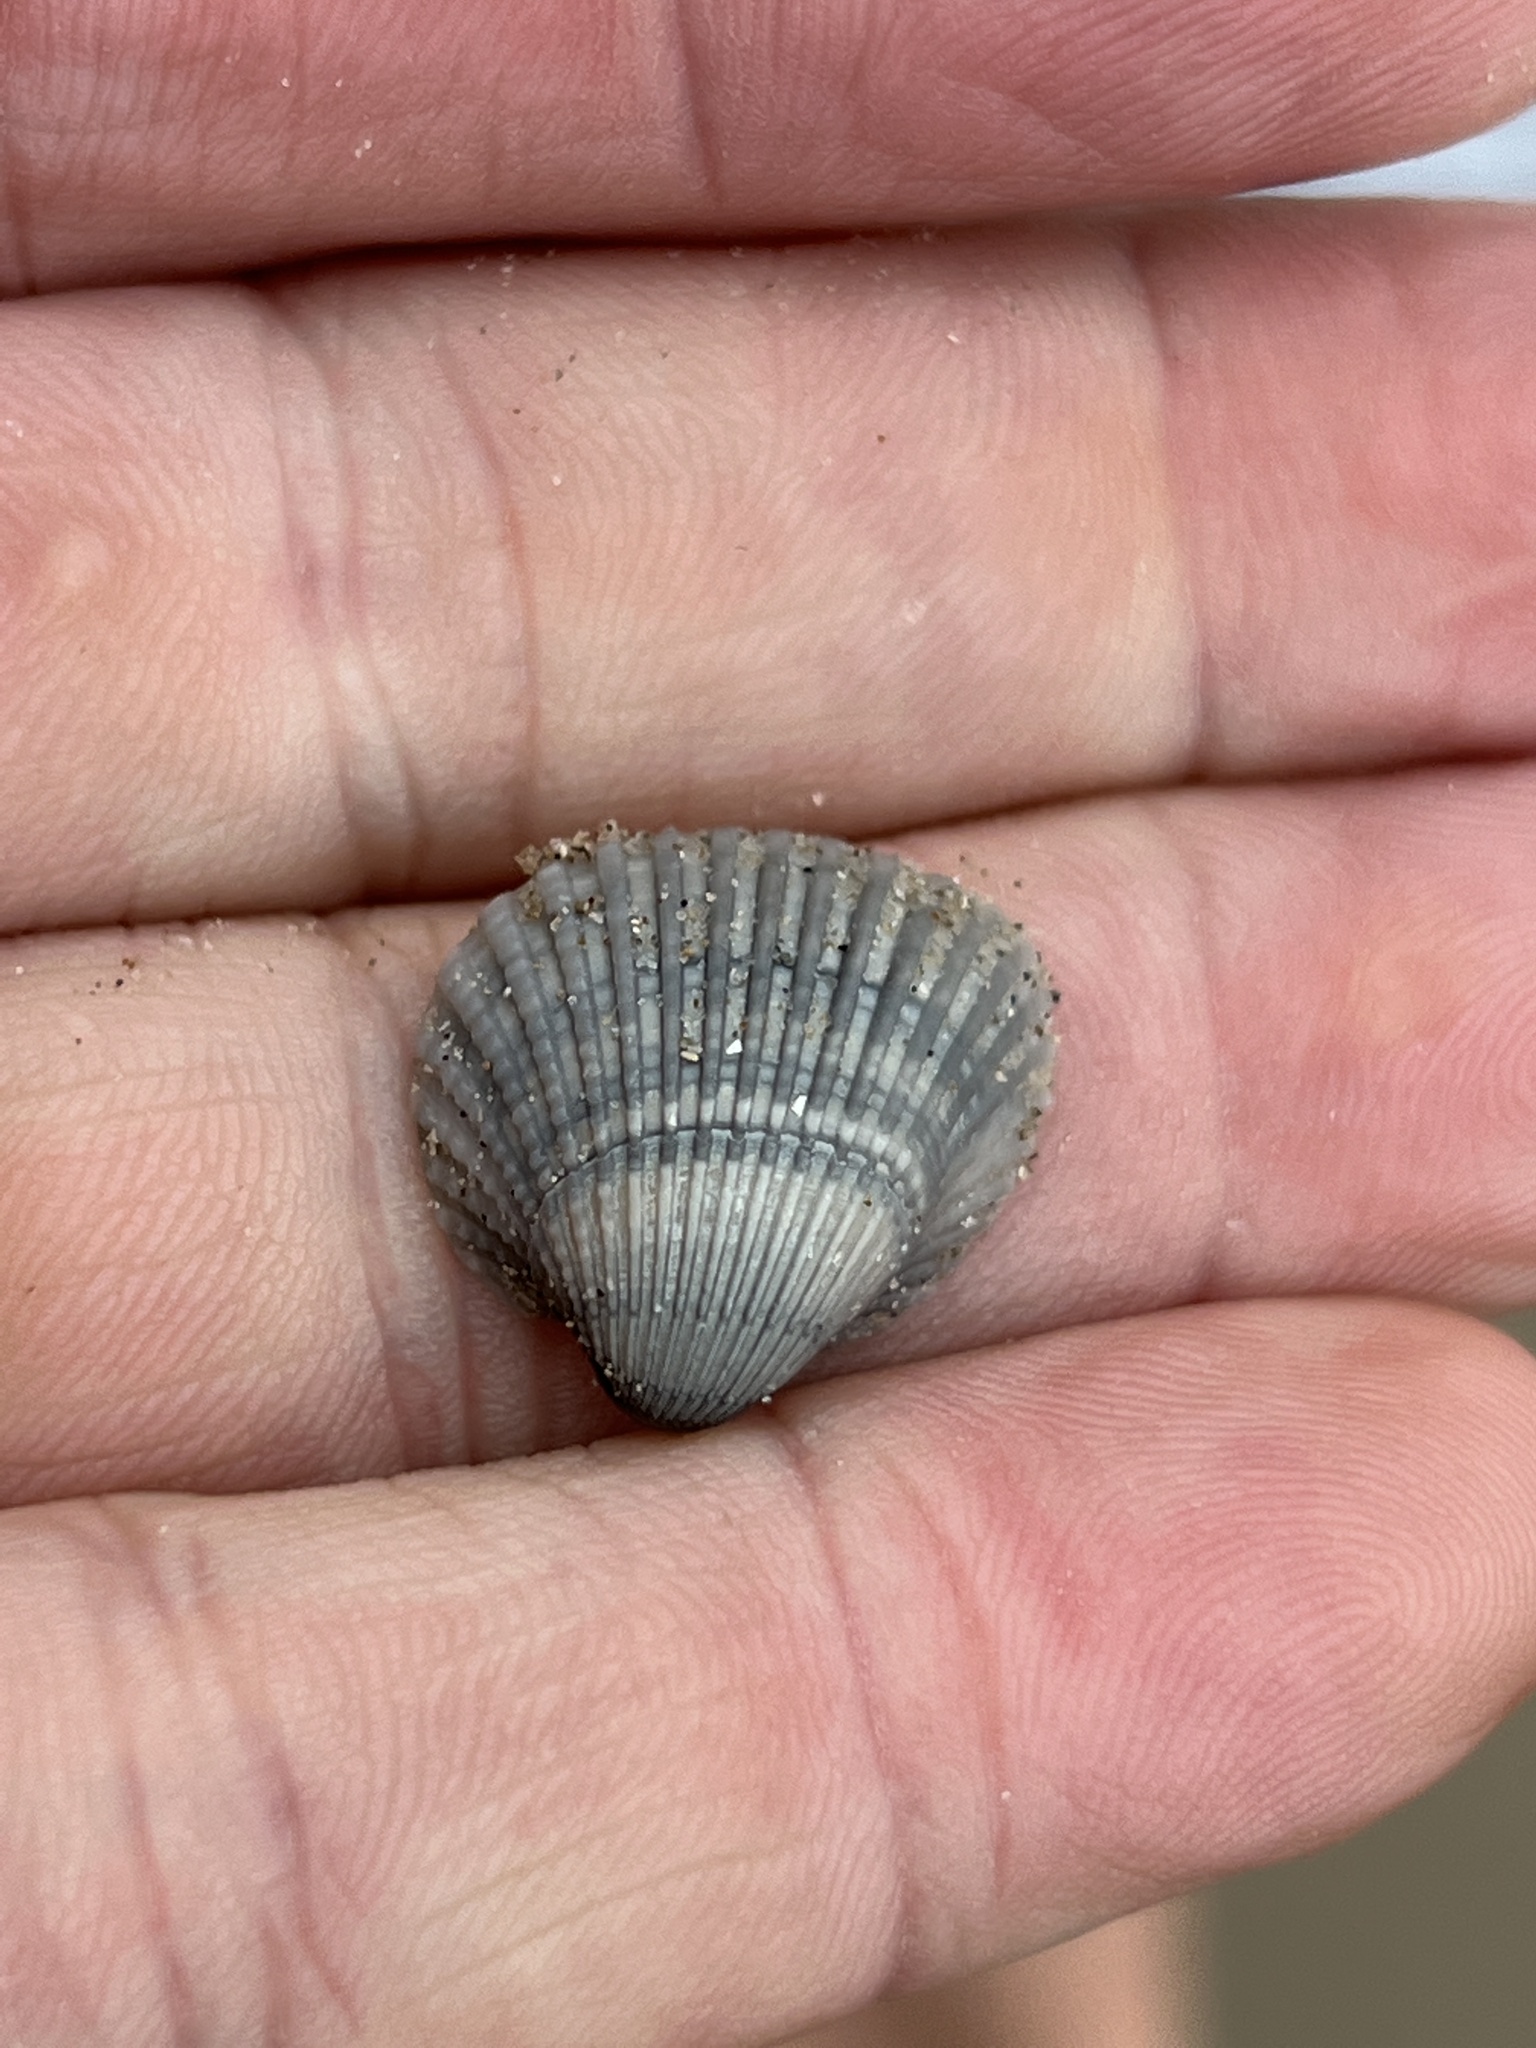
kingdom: Animalia
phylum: Mollusca
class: Bivalvia
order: Arcida
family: Arcidae
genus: Anadara
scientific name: Anadara brasiliana
